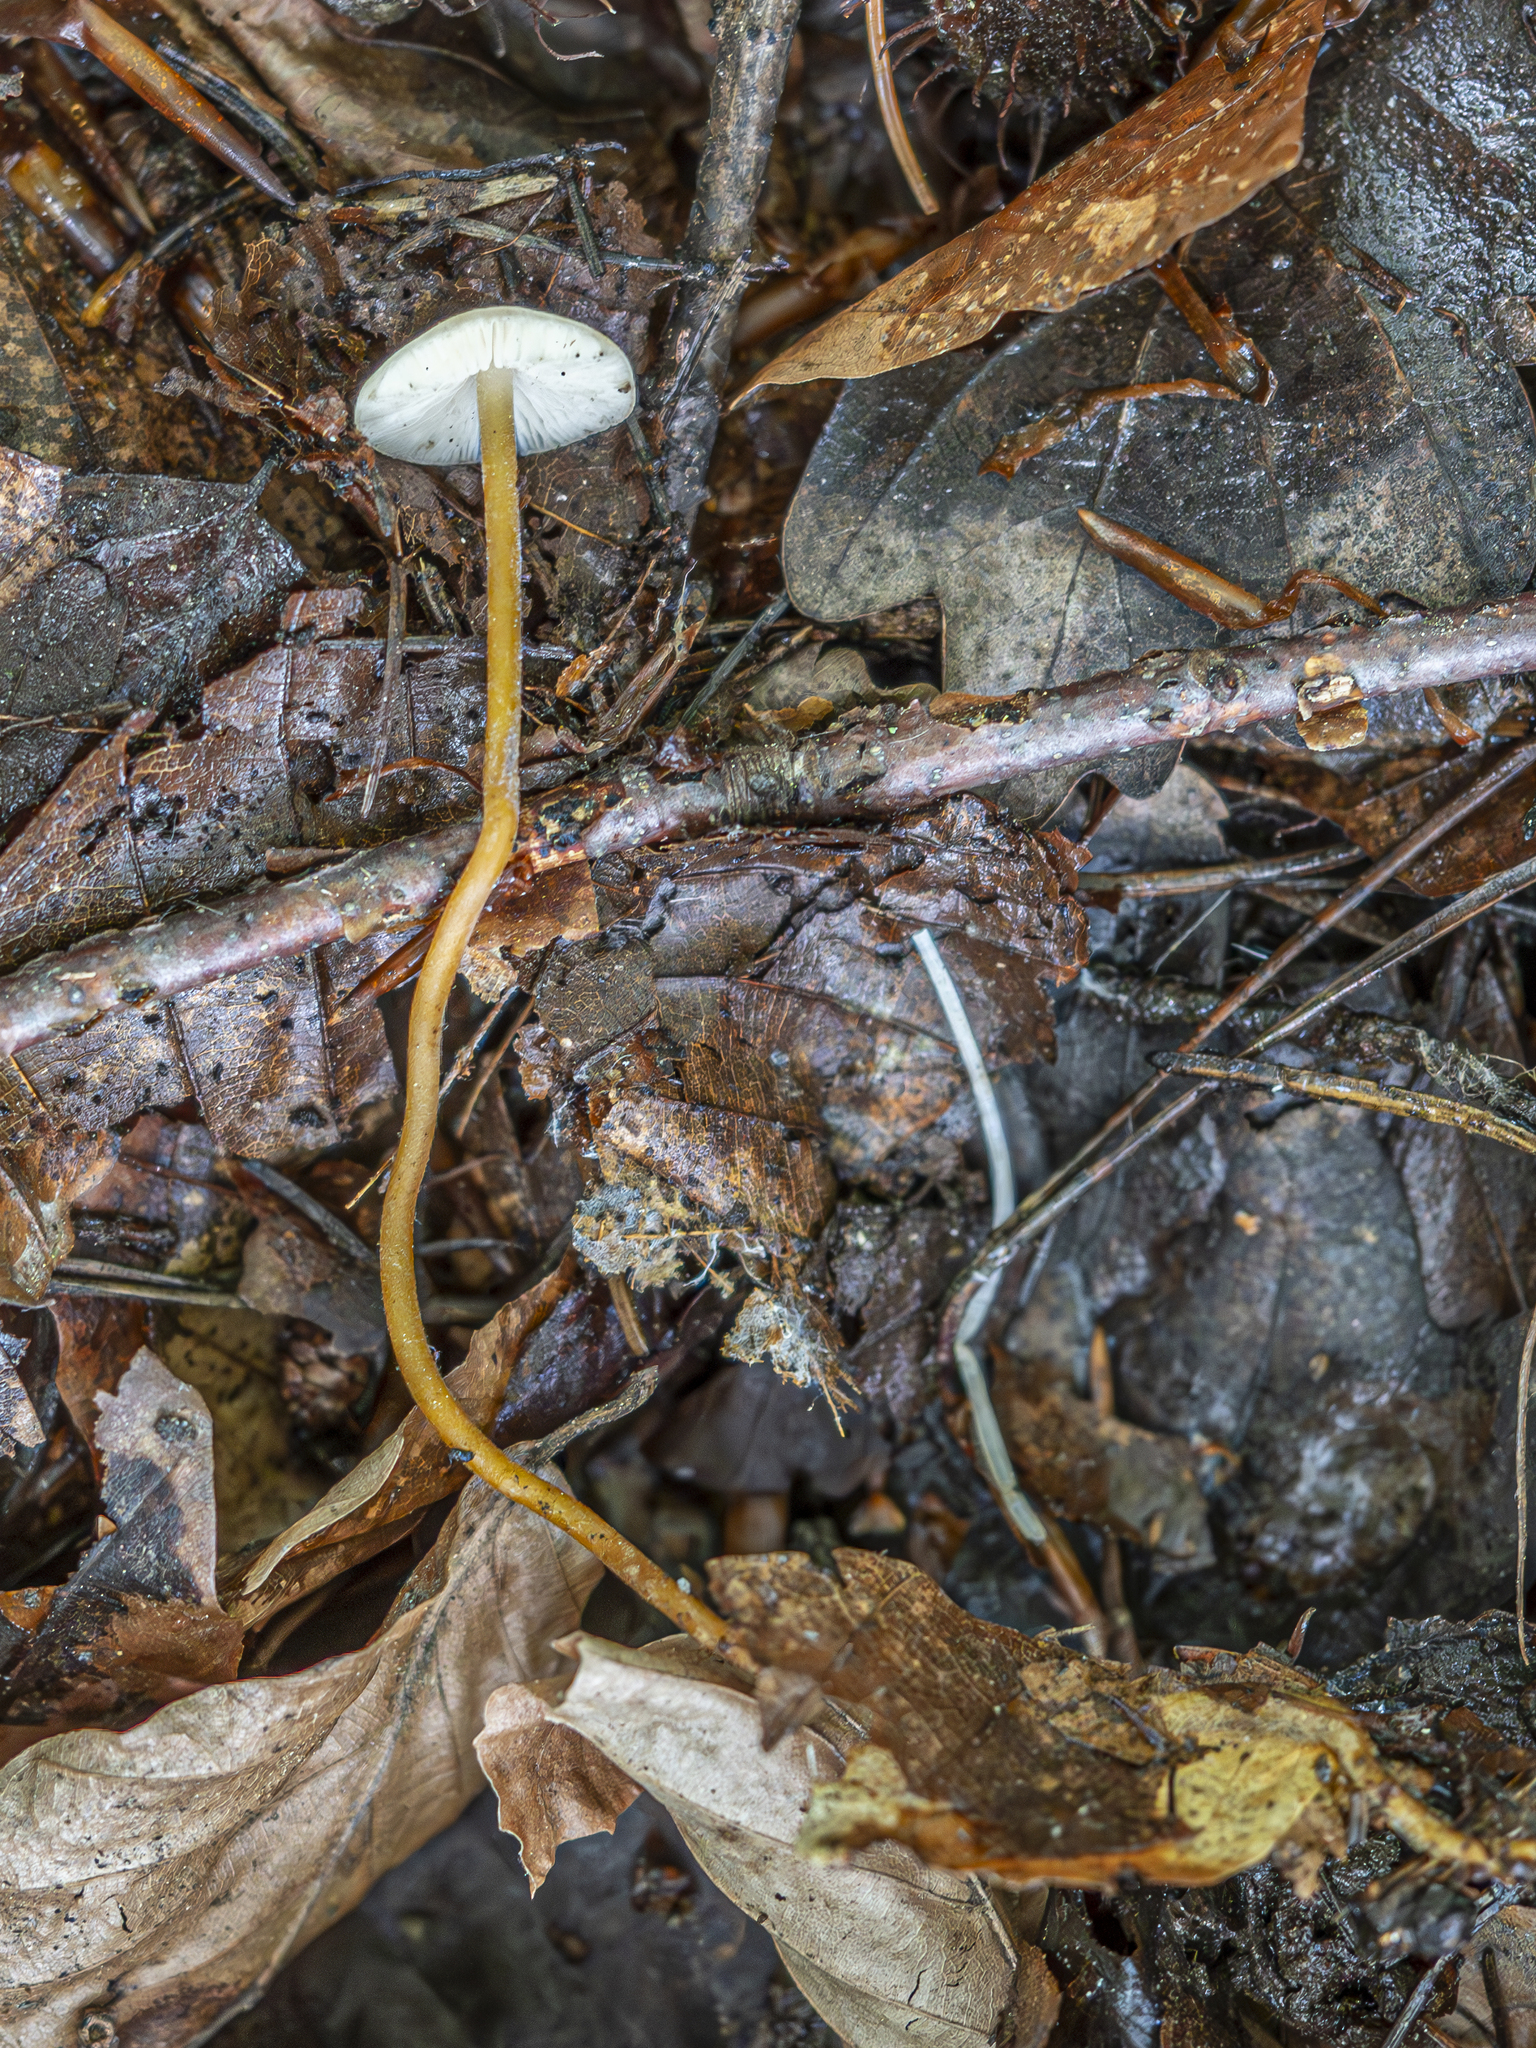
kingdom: Fungi
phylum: Basidiomycota
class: Agaricomycetes
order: Agaricales
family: Physalacriaceae
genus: Strobilurus
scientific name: Strobilurus tenacellus
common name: Pinecone cap
